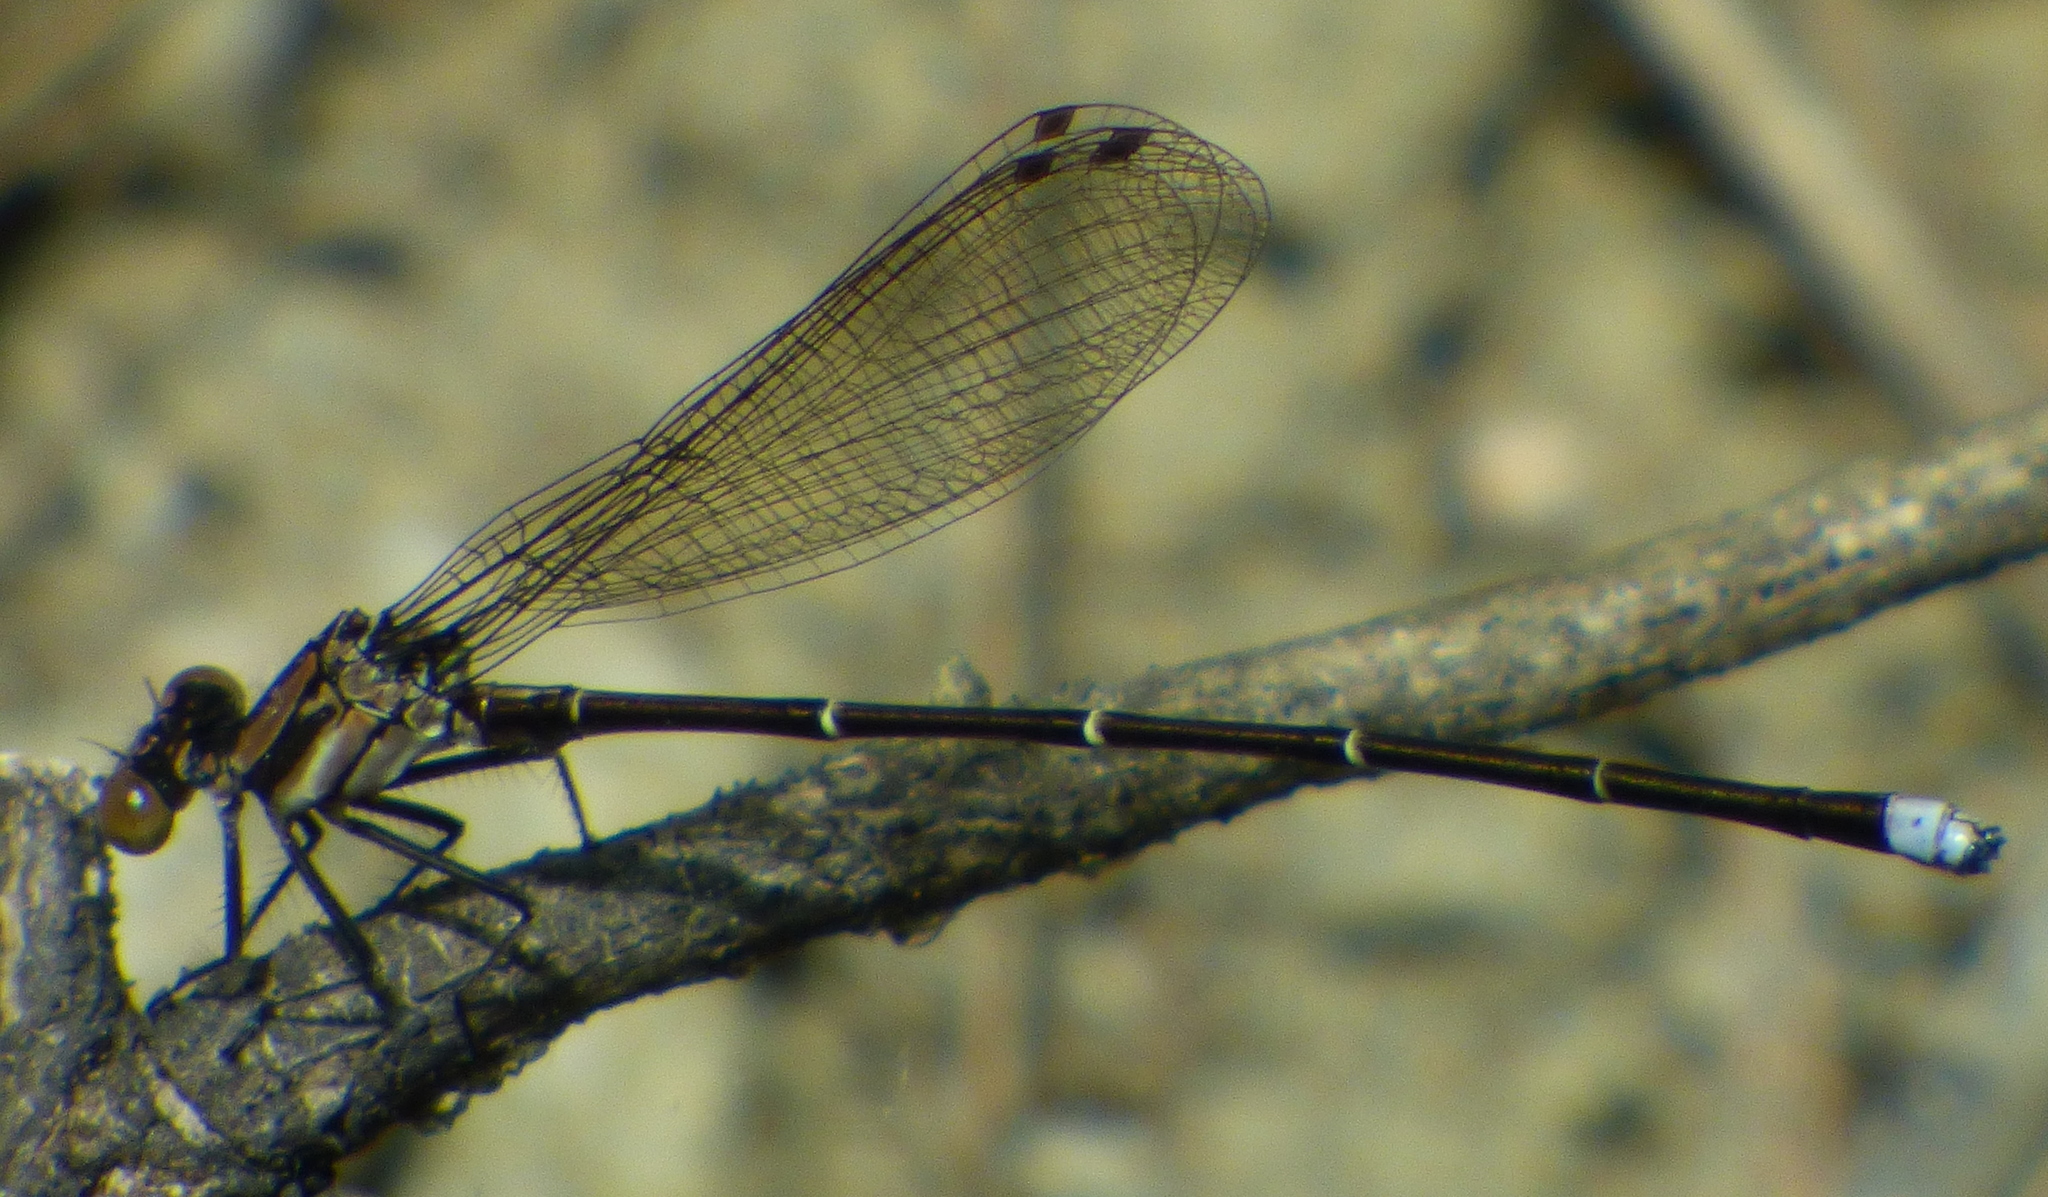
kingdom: Animalia
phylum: Arthropoda
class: Insecta
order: Odonata
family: Coenagrionidae
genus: Argia
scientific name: Argia tibialis
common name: Blue-tipped dancer
